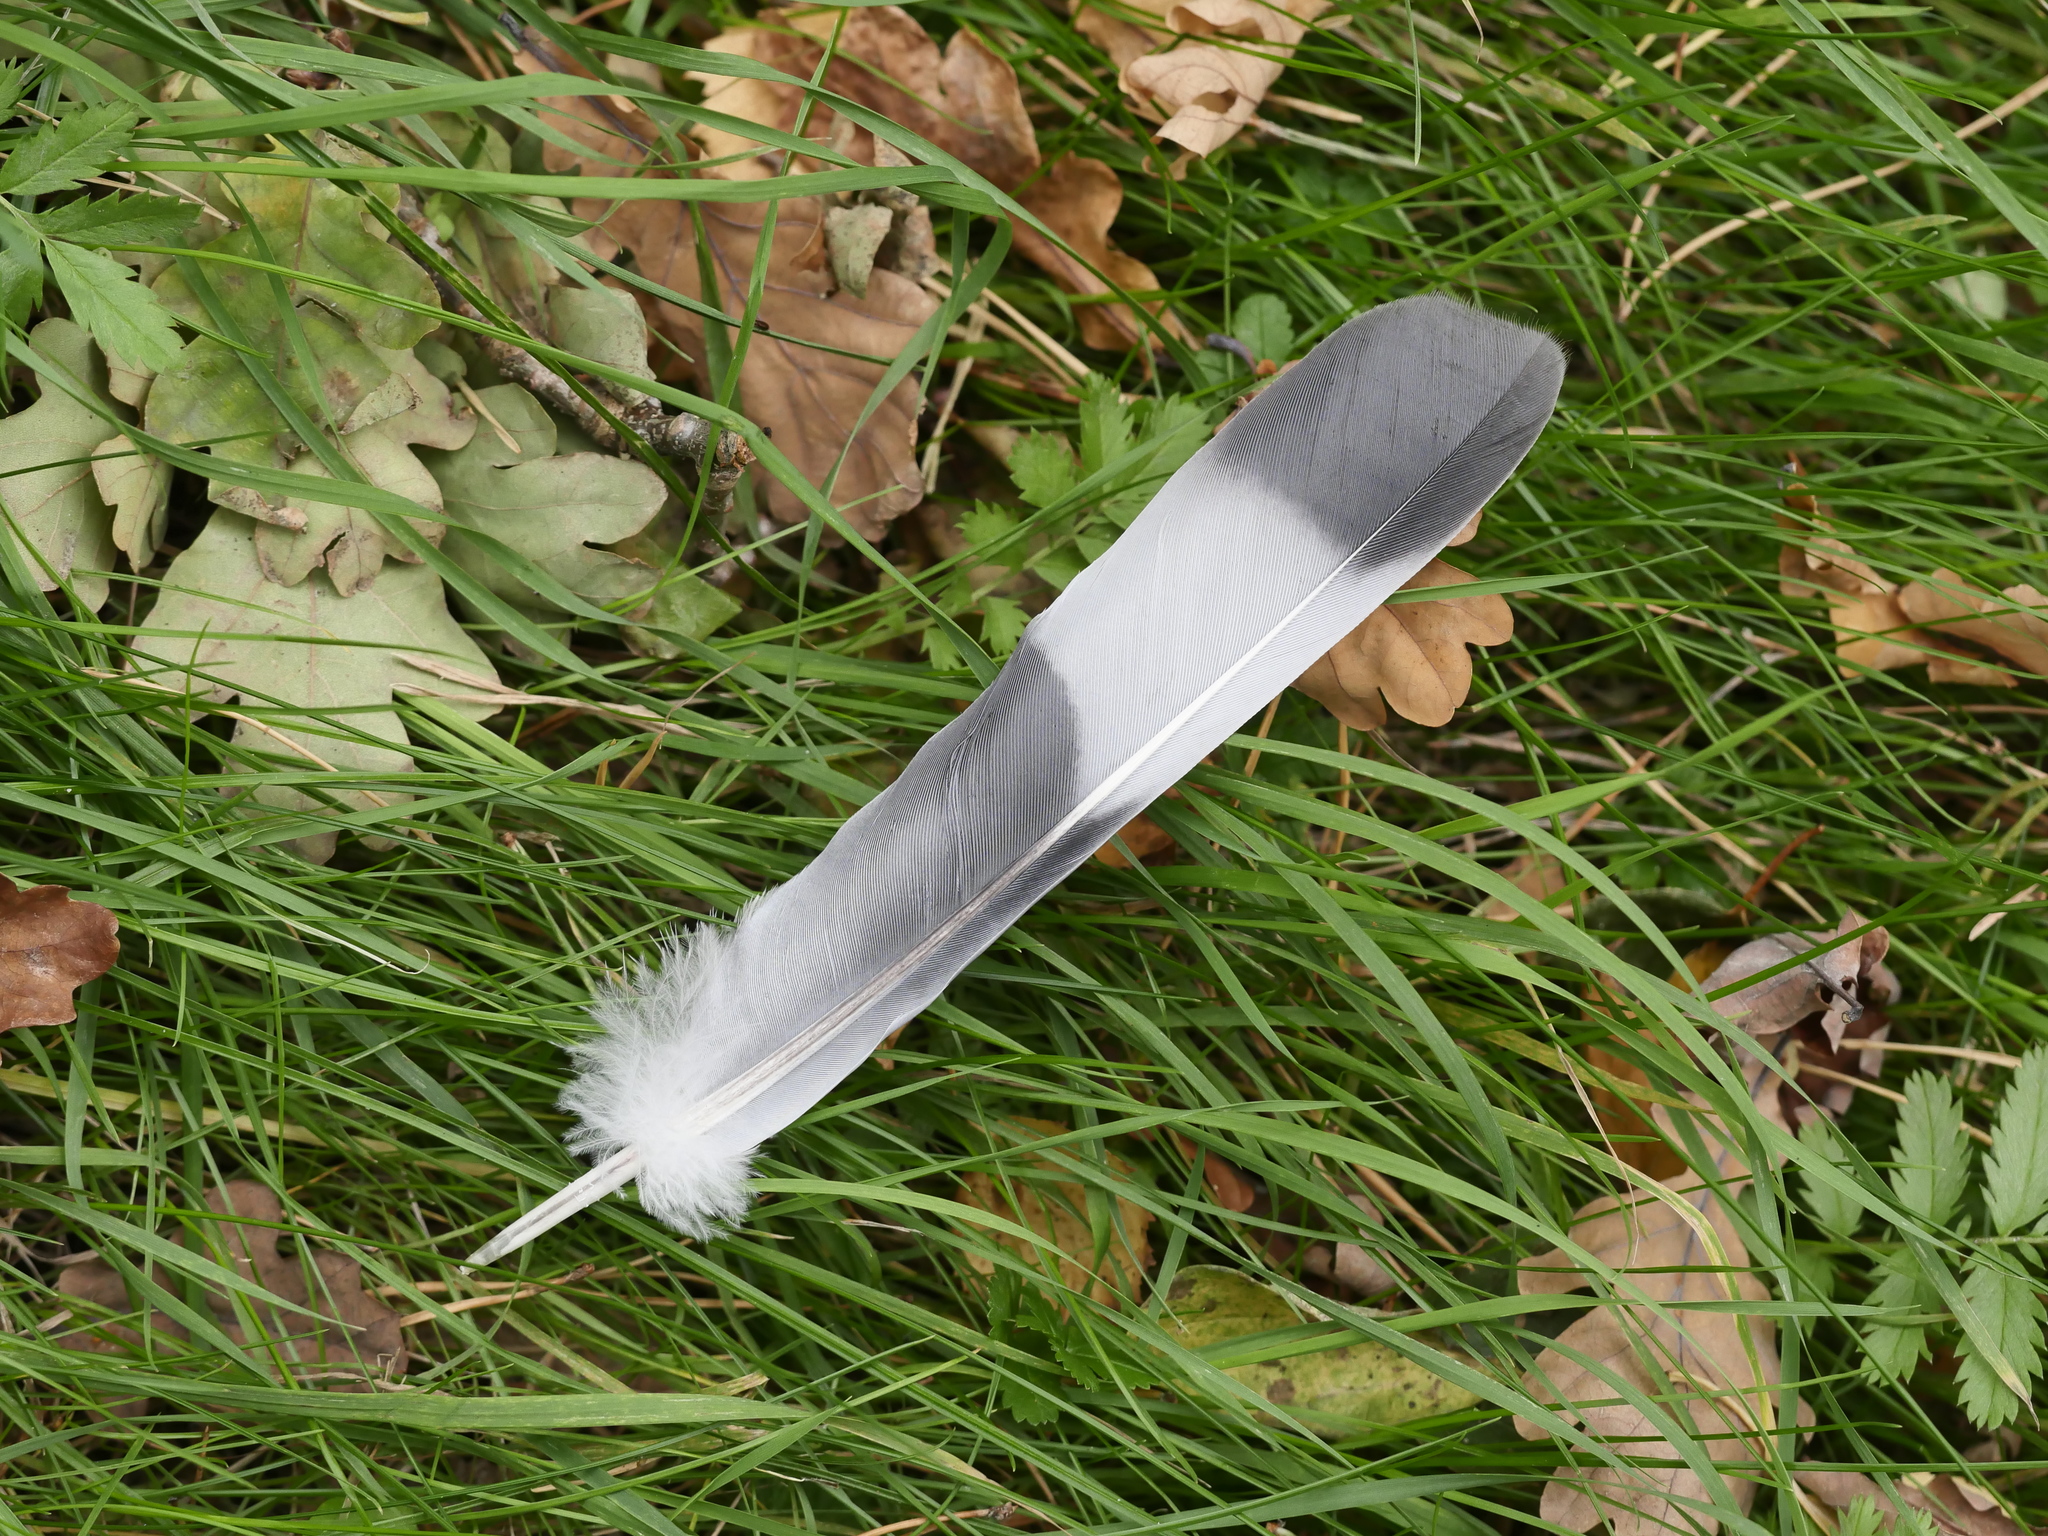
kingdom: Animalia
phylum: Chordata
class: Aves
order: Columbiformes
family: Columbidae
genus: Columba
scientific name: Columba palumbus
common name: Common wood pigeon
